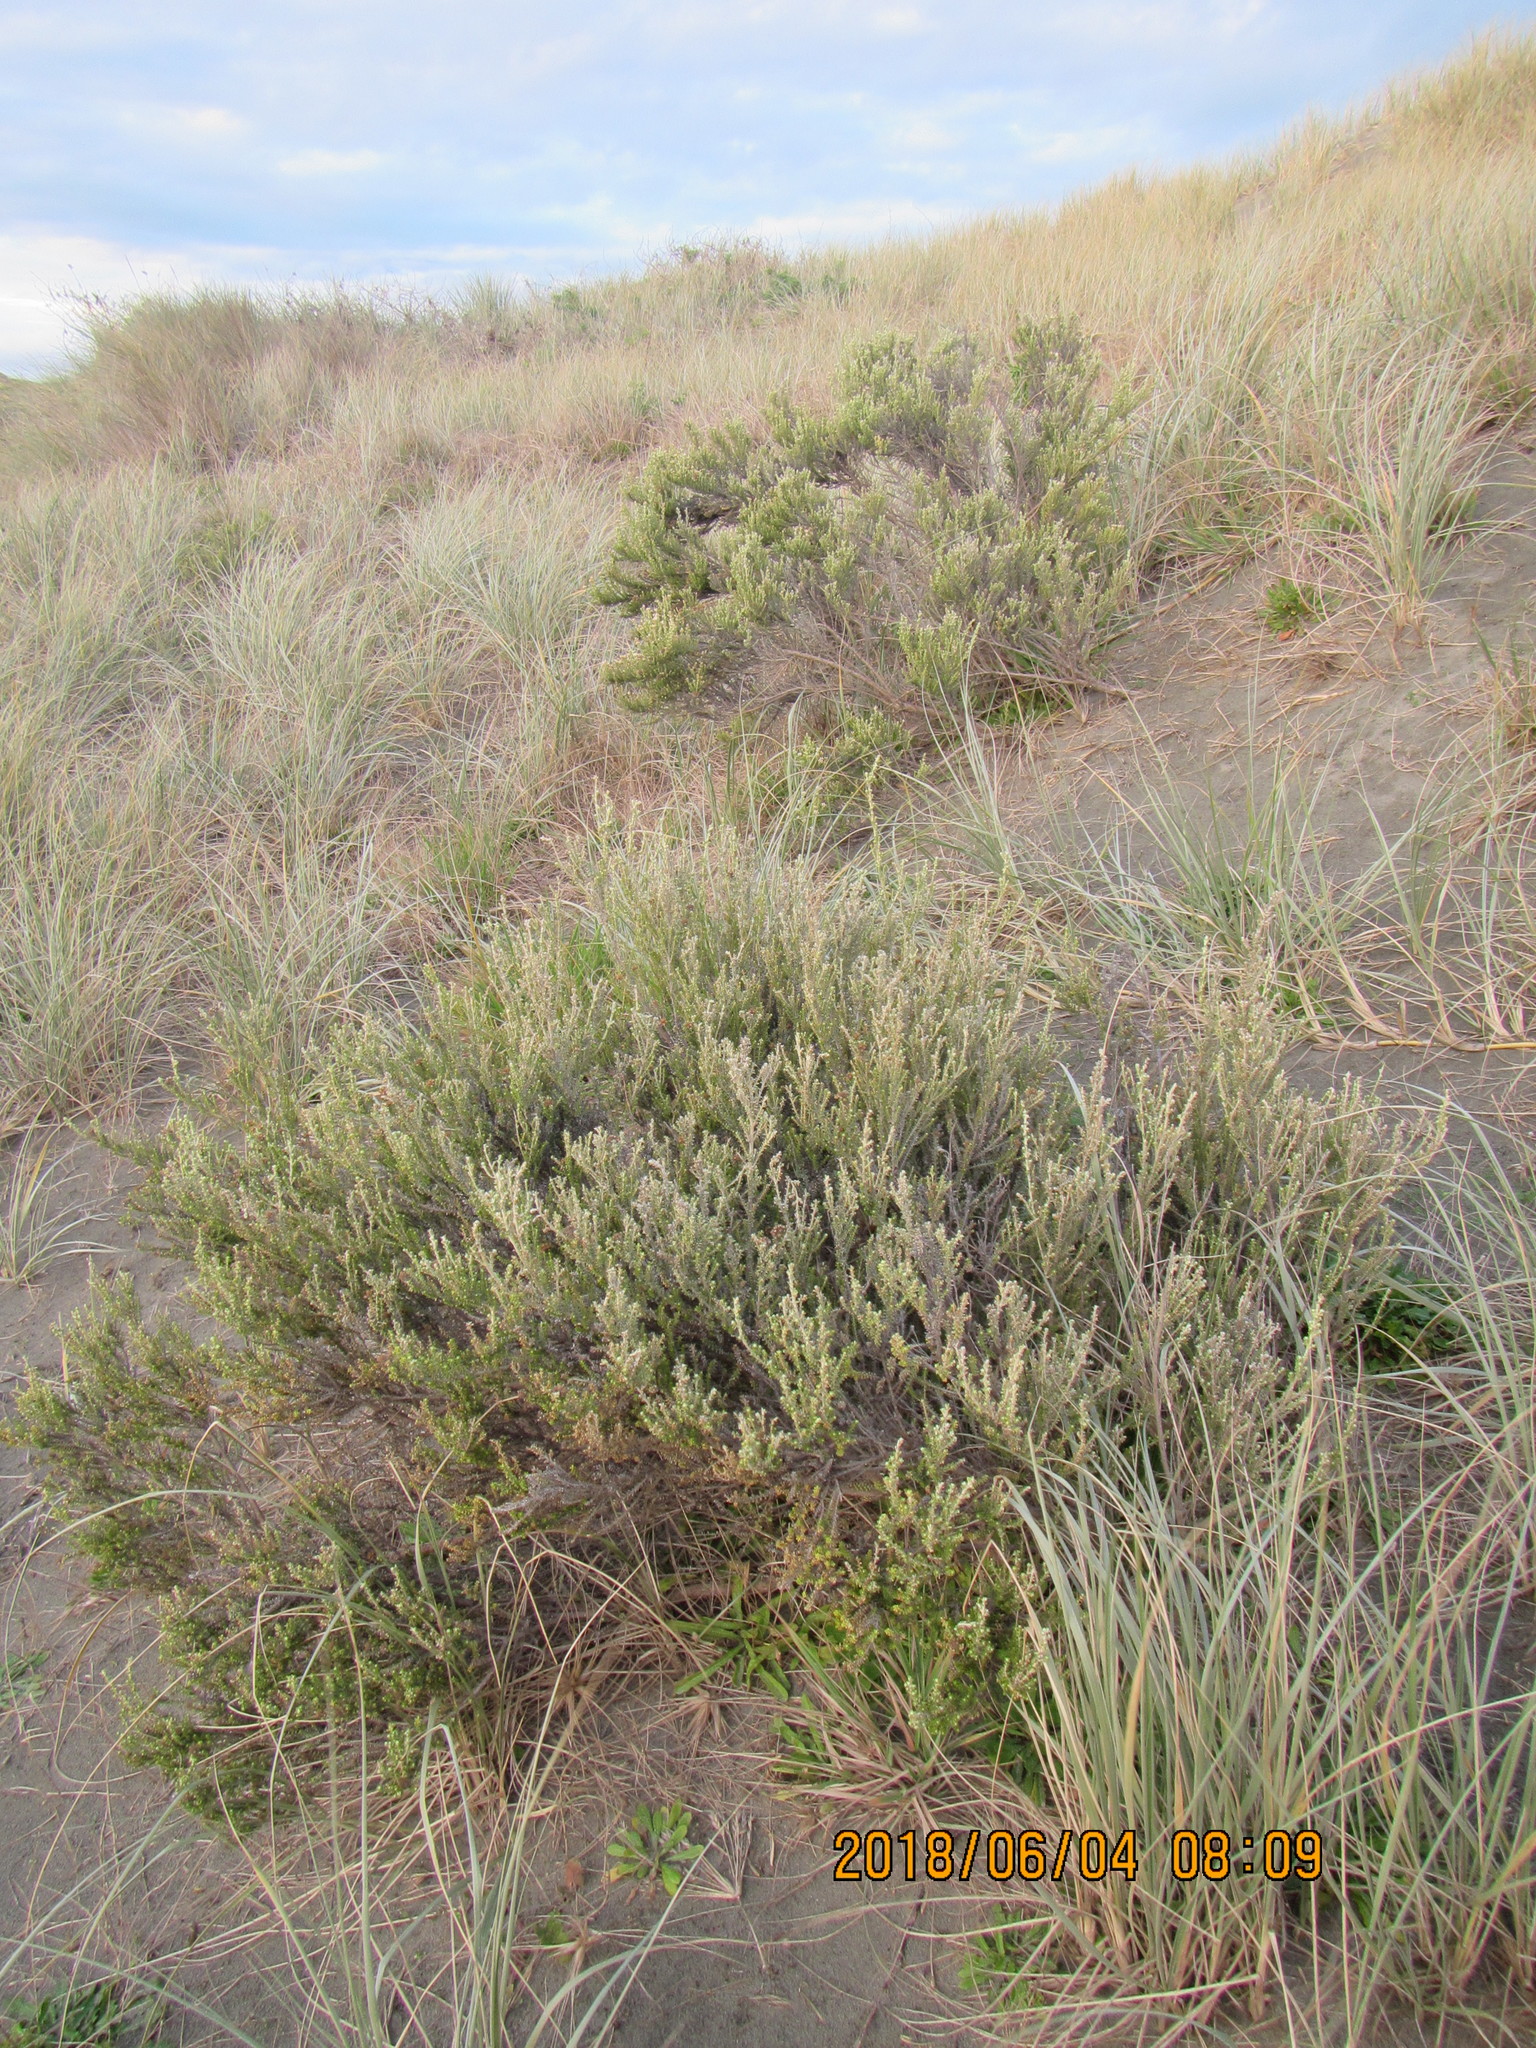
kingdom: Plantae
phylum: Tracheophyta
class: Magnoliopsida
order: Asterales
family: Asteraceae
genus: Ozothamnus
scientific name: Ozothamnus leptophyllus
